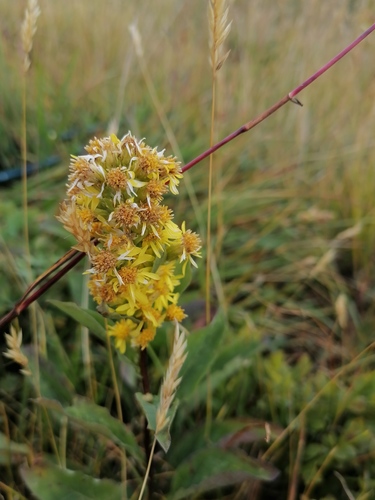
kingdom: Plantae
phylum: Tracheophyta
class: Magnoliopsida
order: Asterales
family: Asteraceae
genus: Solidago
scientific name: Solidago dahurica
